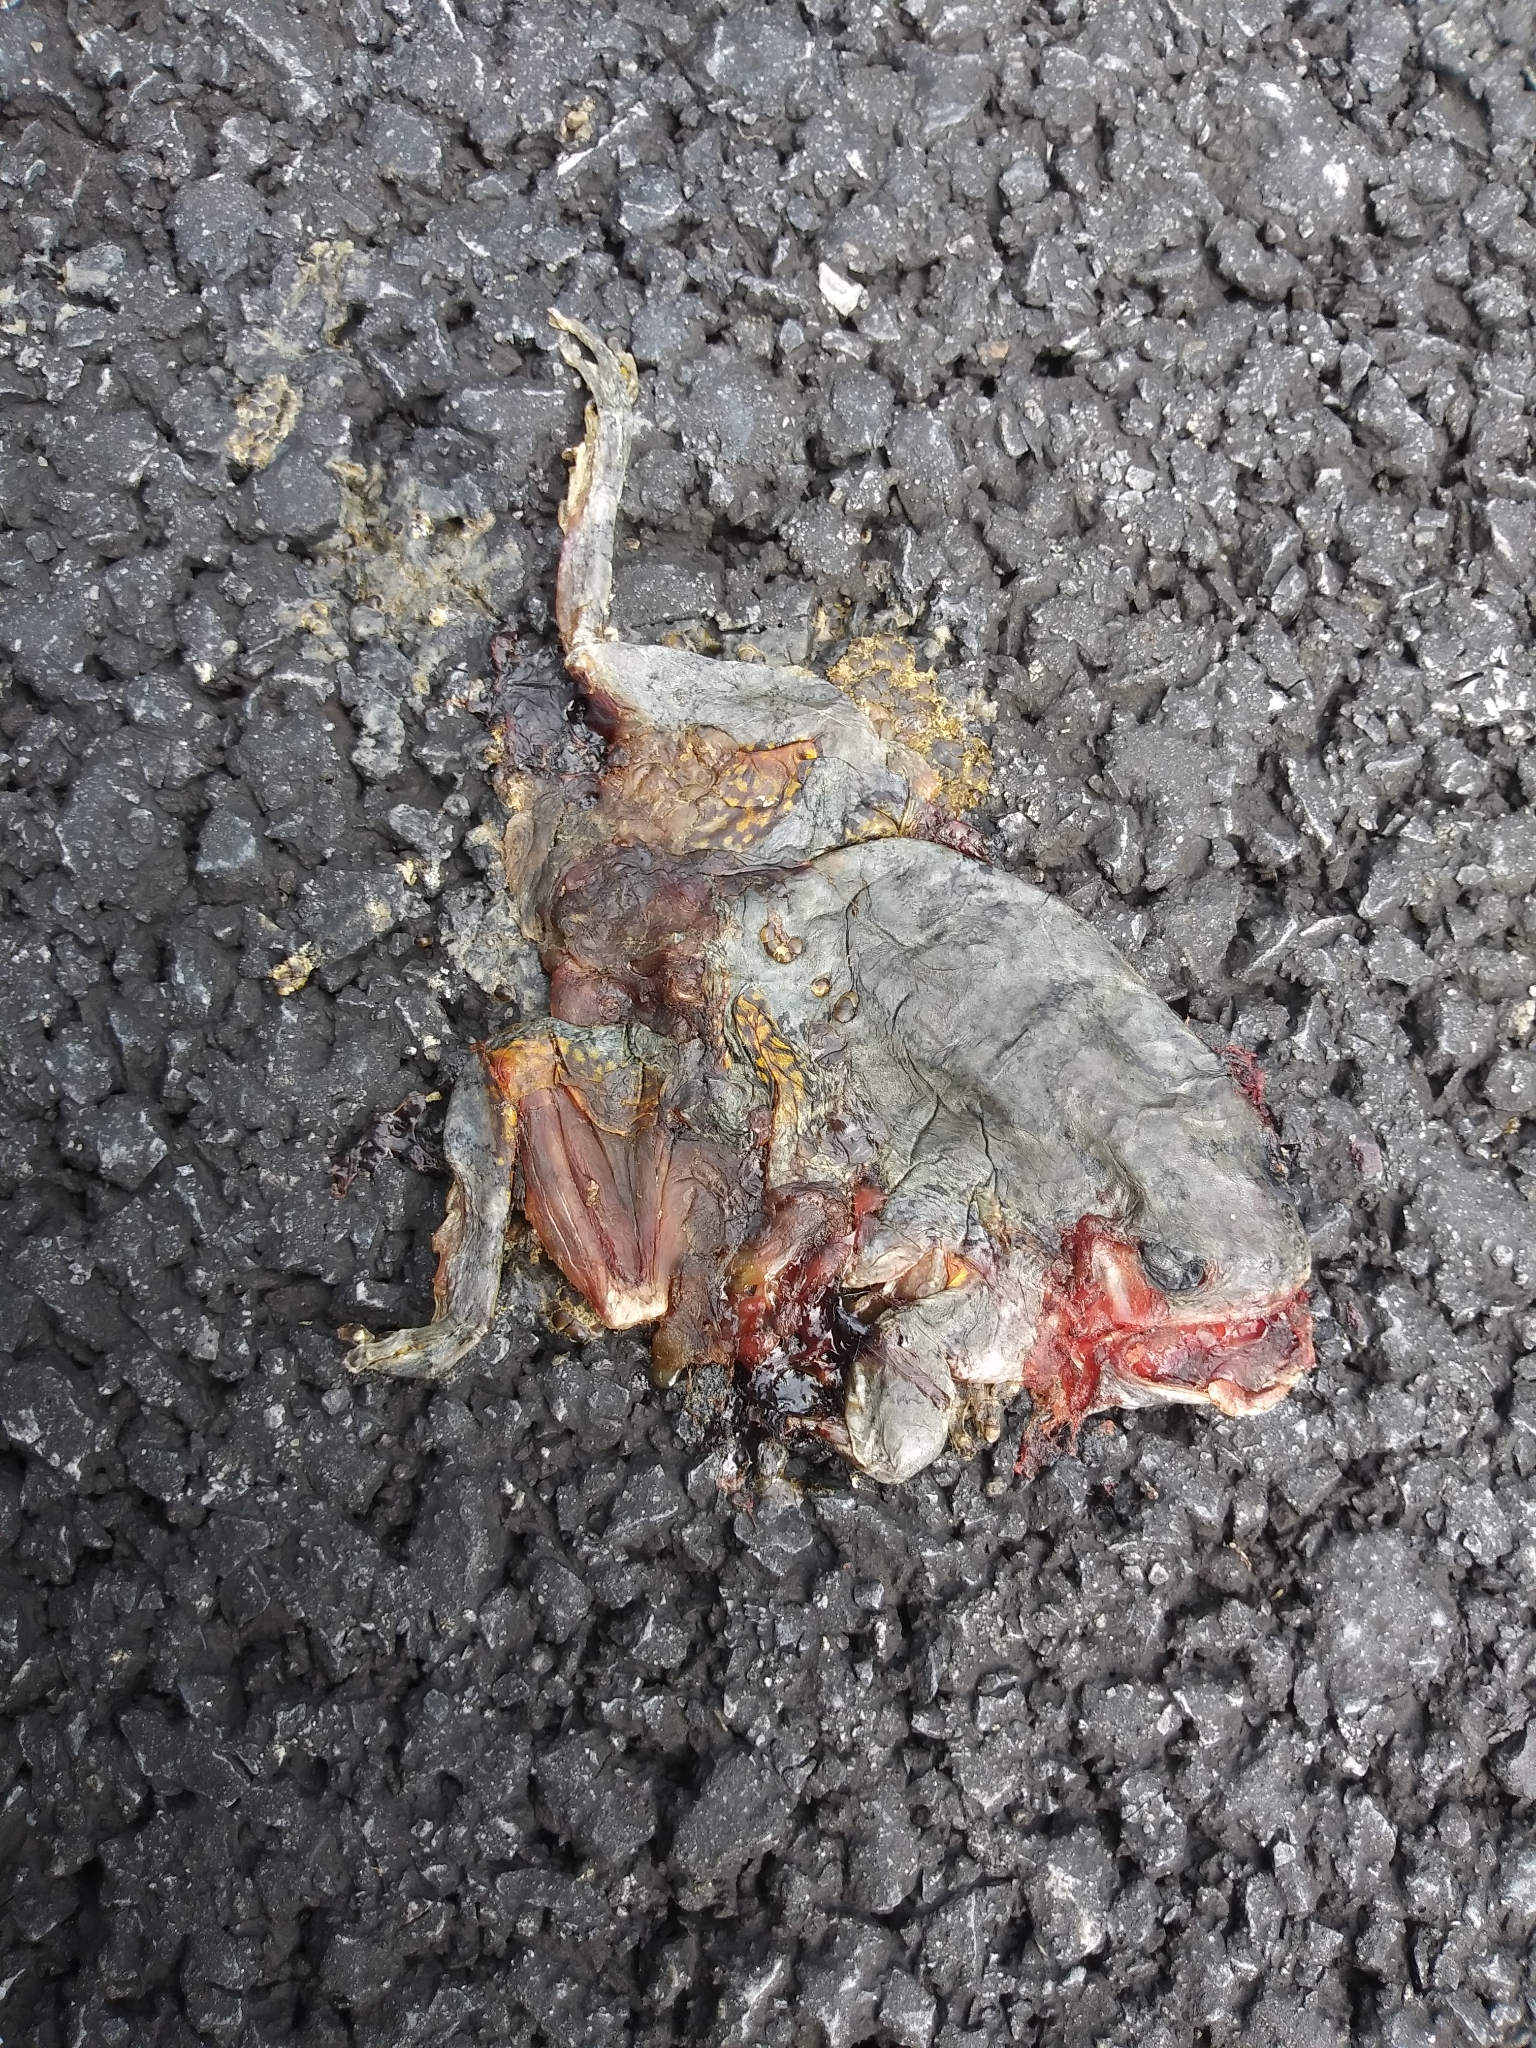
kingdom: Animalia
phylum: Chordata
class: Amphibia
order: Anura
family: Hylidae
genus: Hyla
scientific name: Hyla
